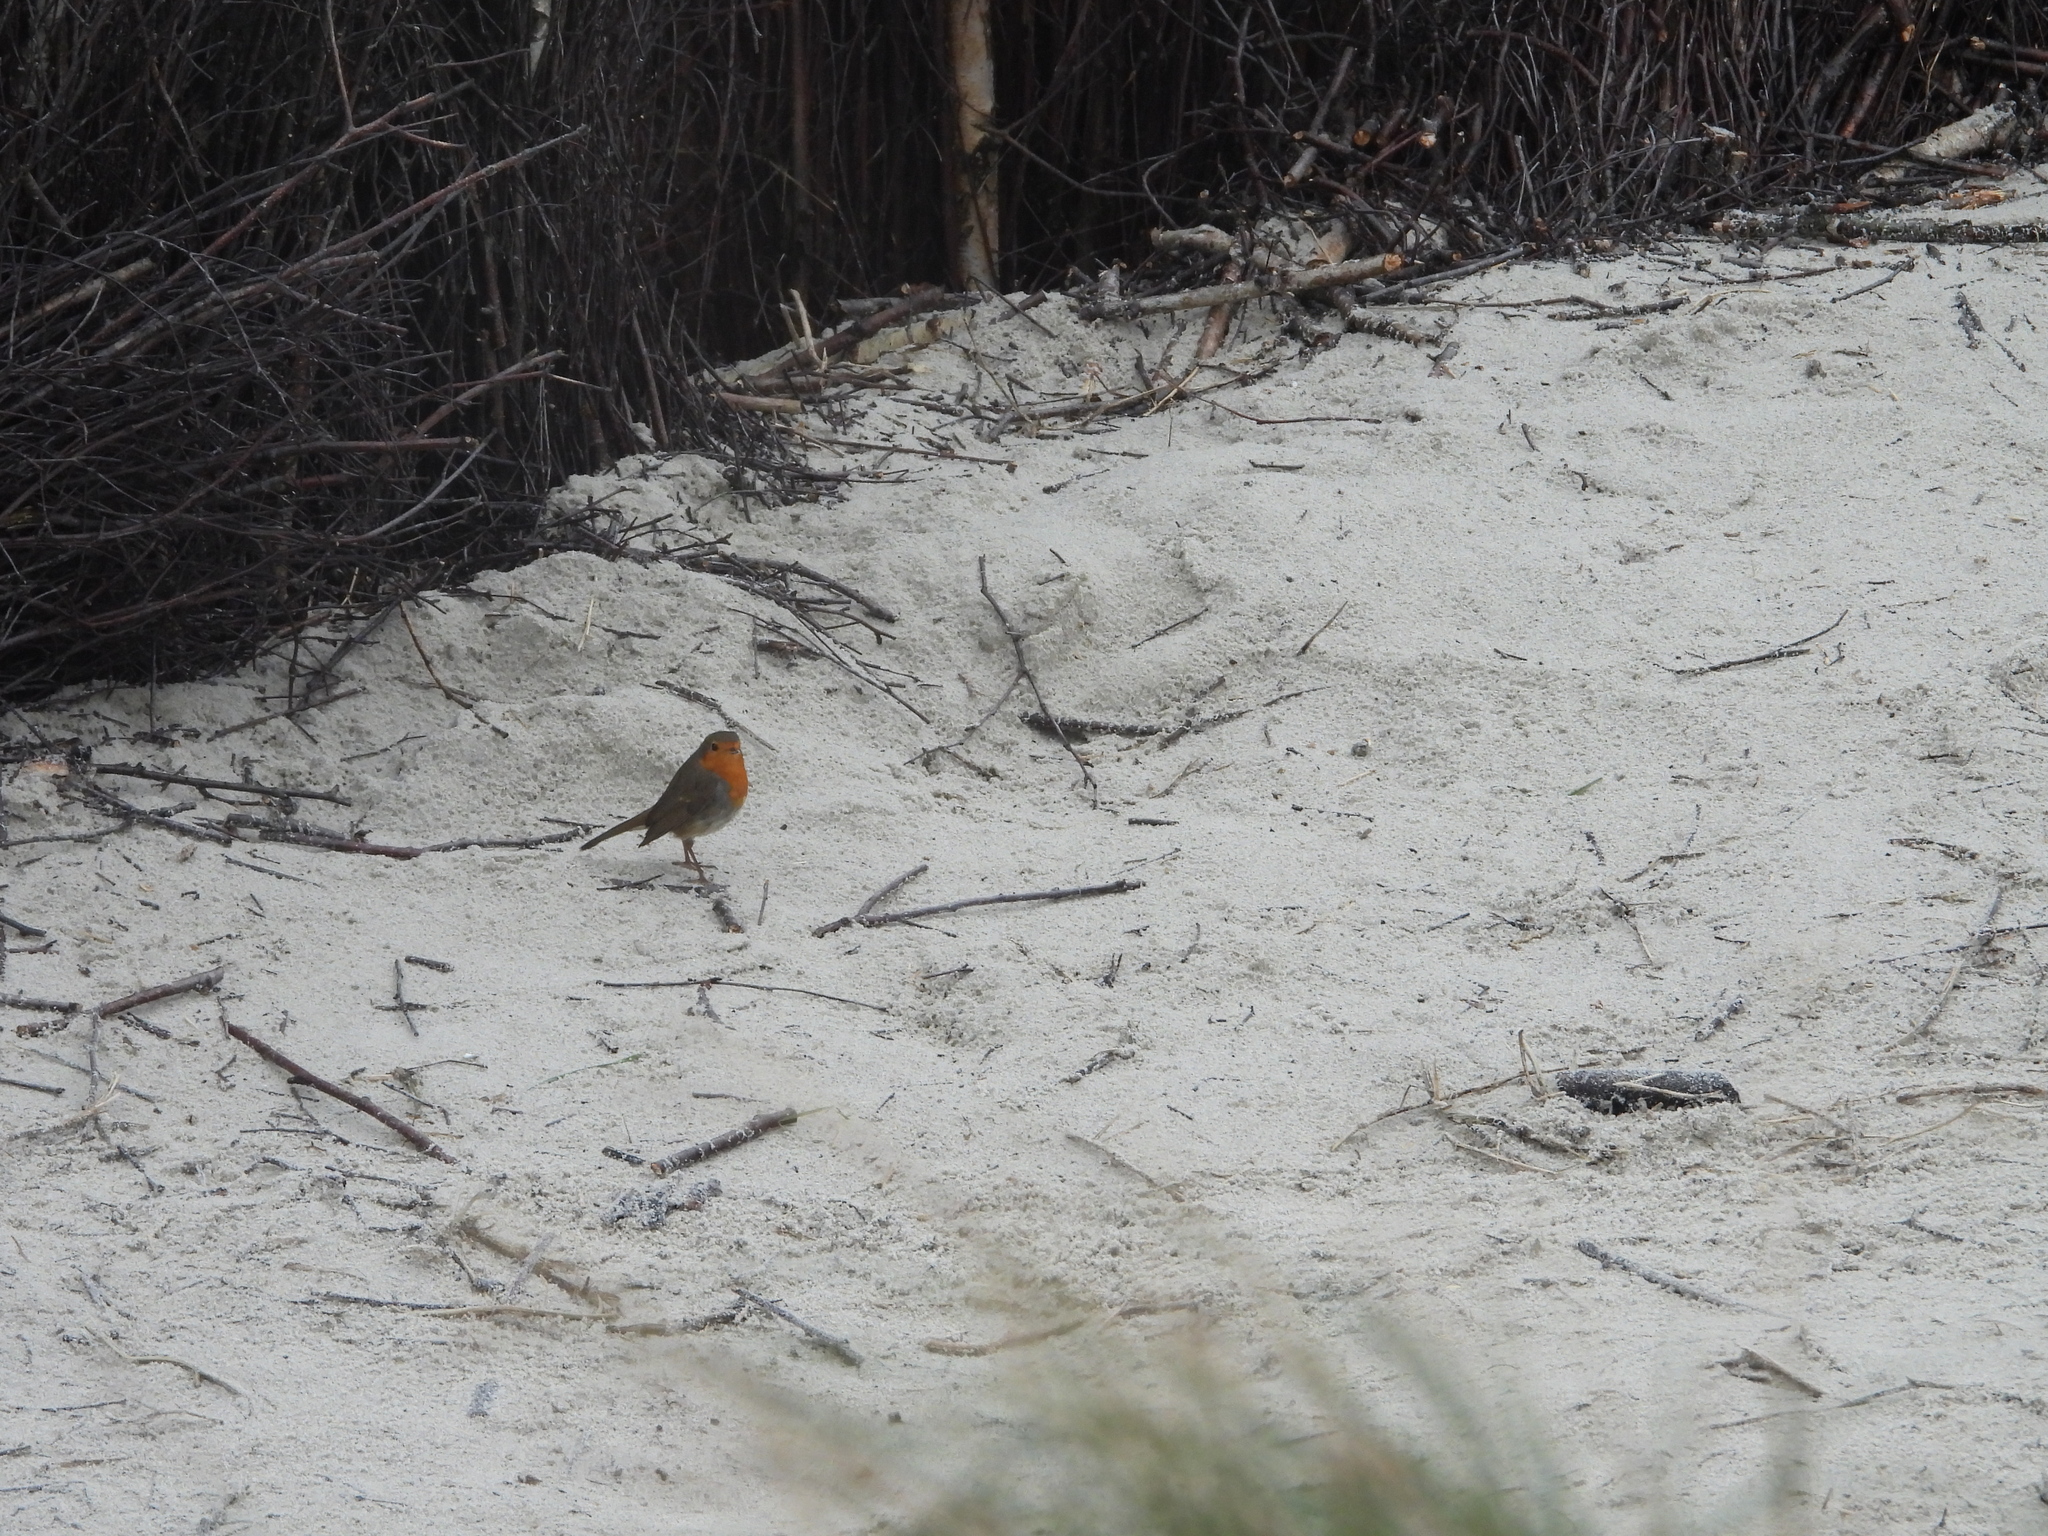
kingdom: Animalia
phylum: Chordata
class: Aves
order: Passeriformes
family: Muscicapidae
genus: Erithacus
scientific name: Erithacus rubecula
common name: European robin
